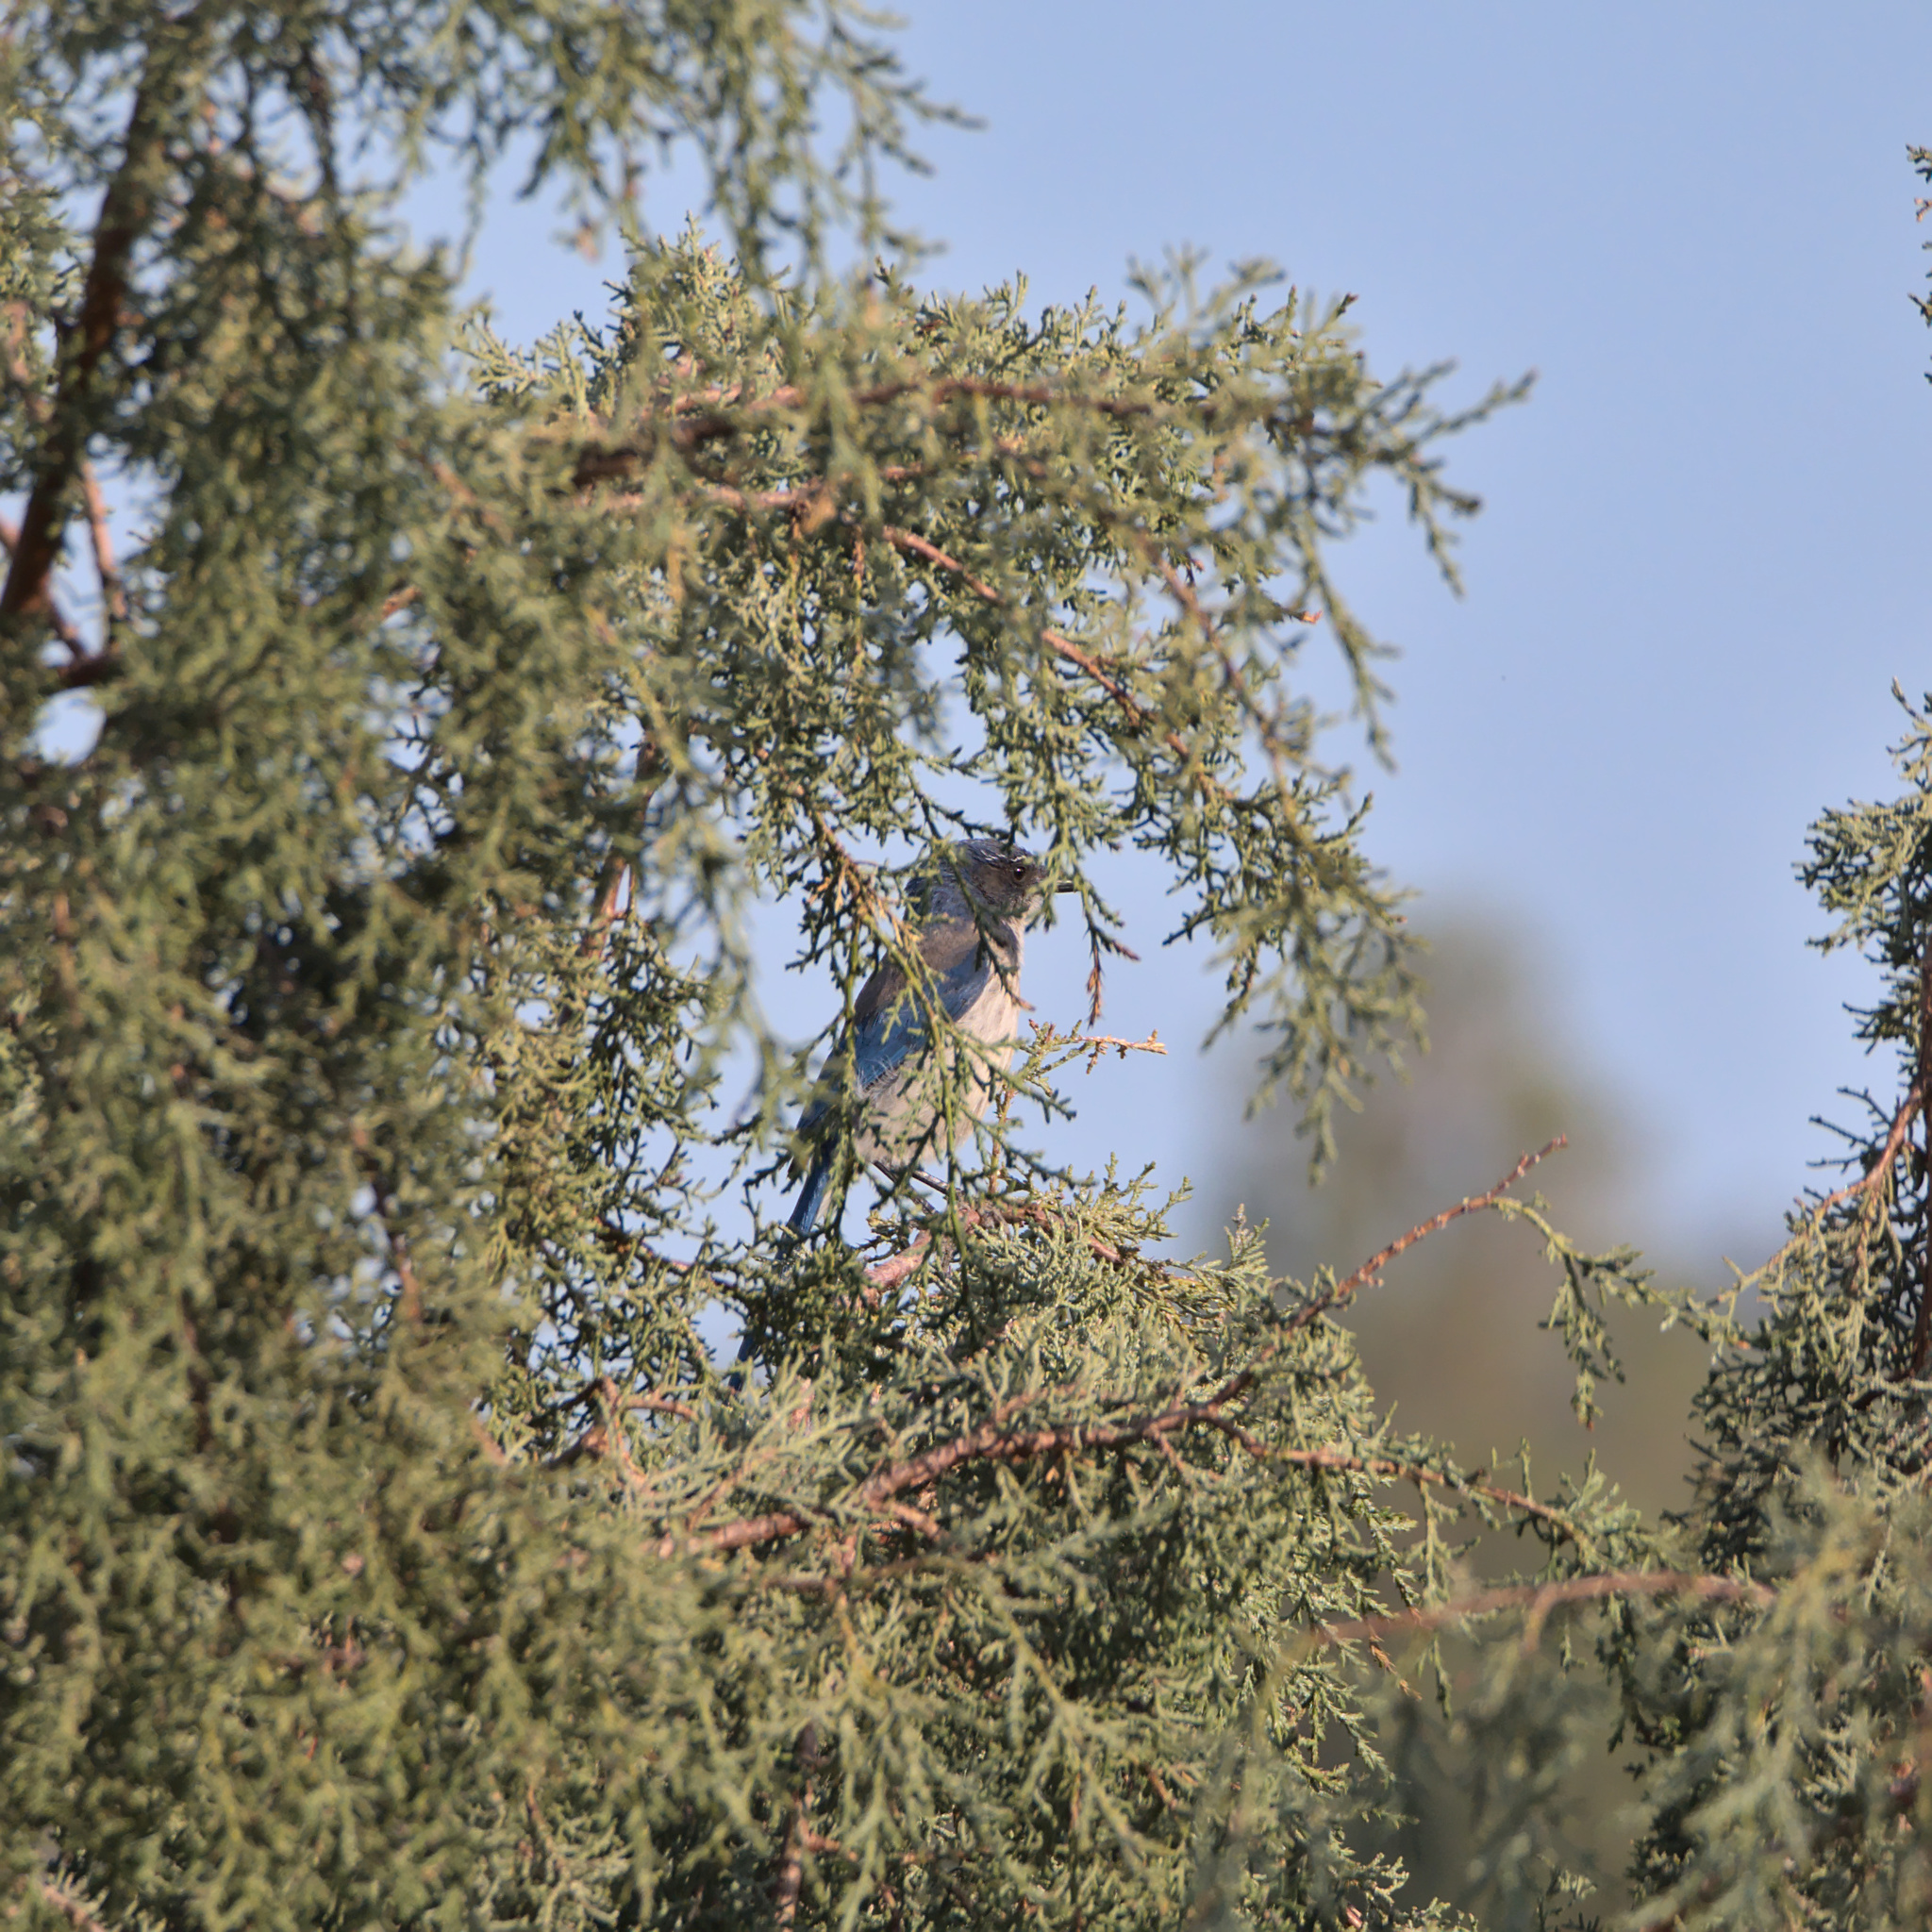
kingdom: Animalia
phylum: Chordata
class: Aves
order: Passeriformes
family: Corvidae
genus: Aphelocoma
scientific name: Aphelocoma californica
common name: California scrub-jay
